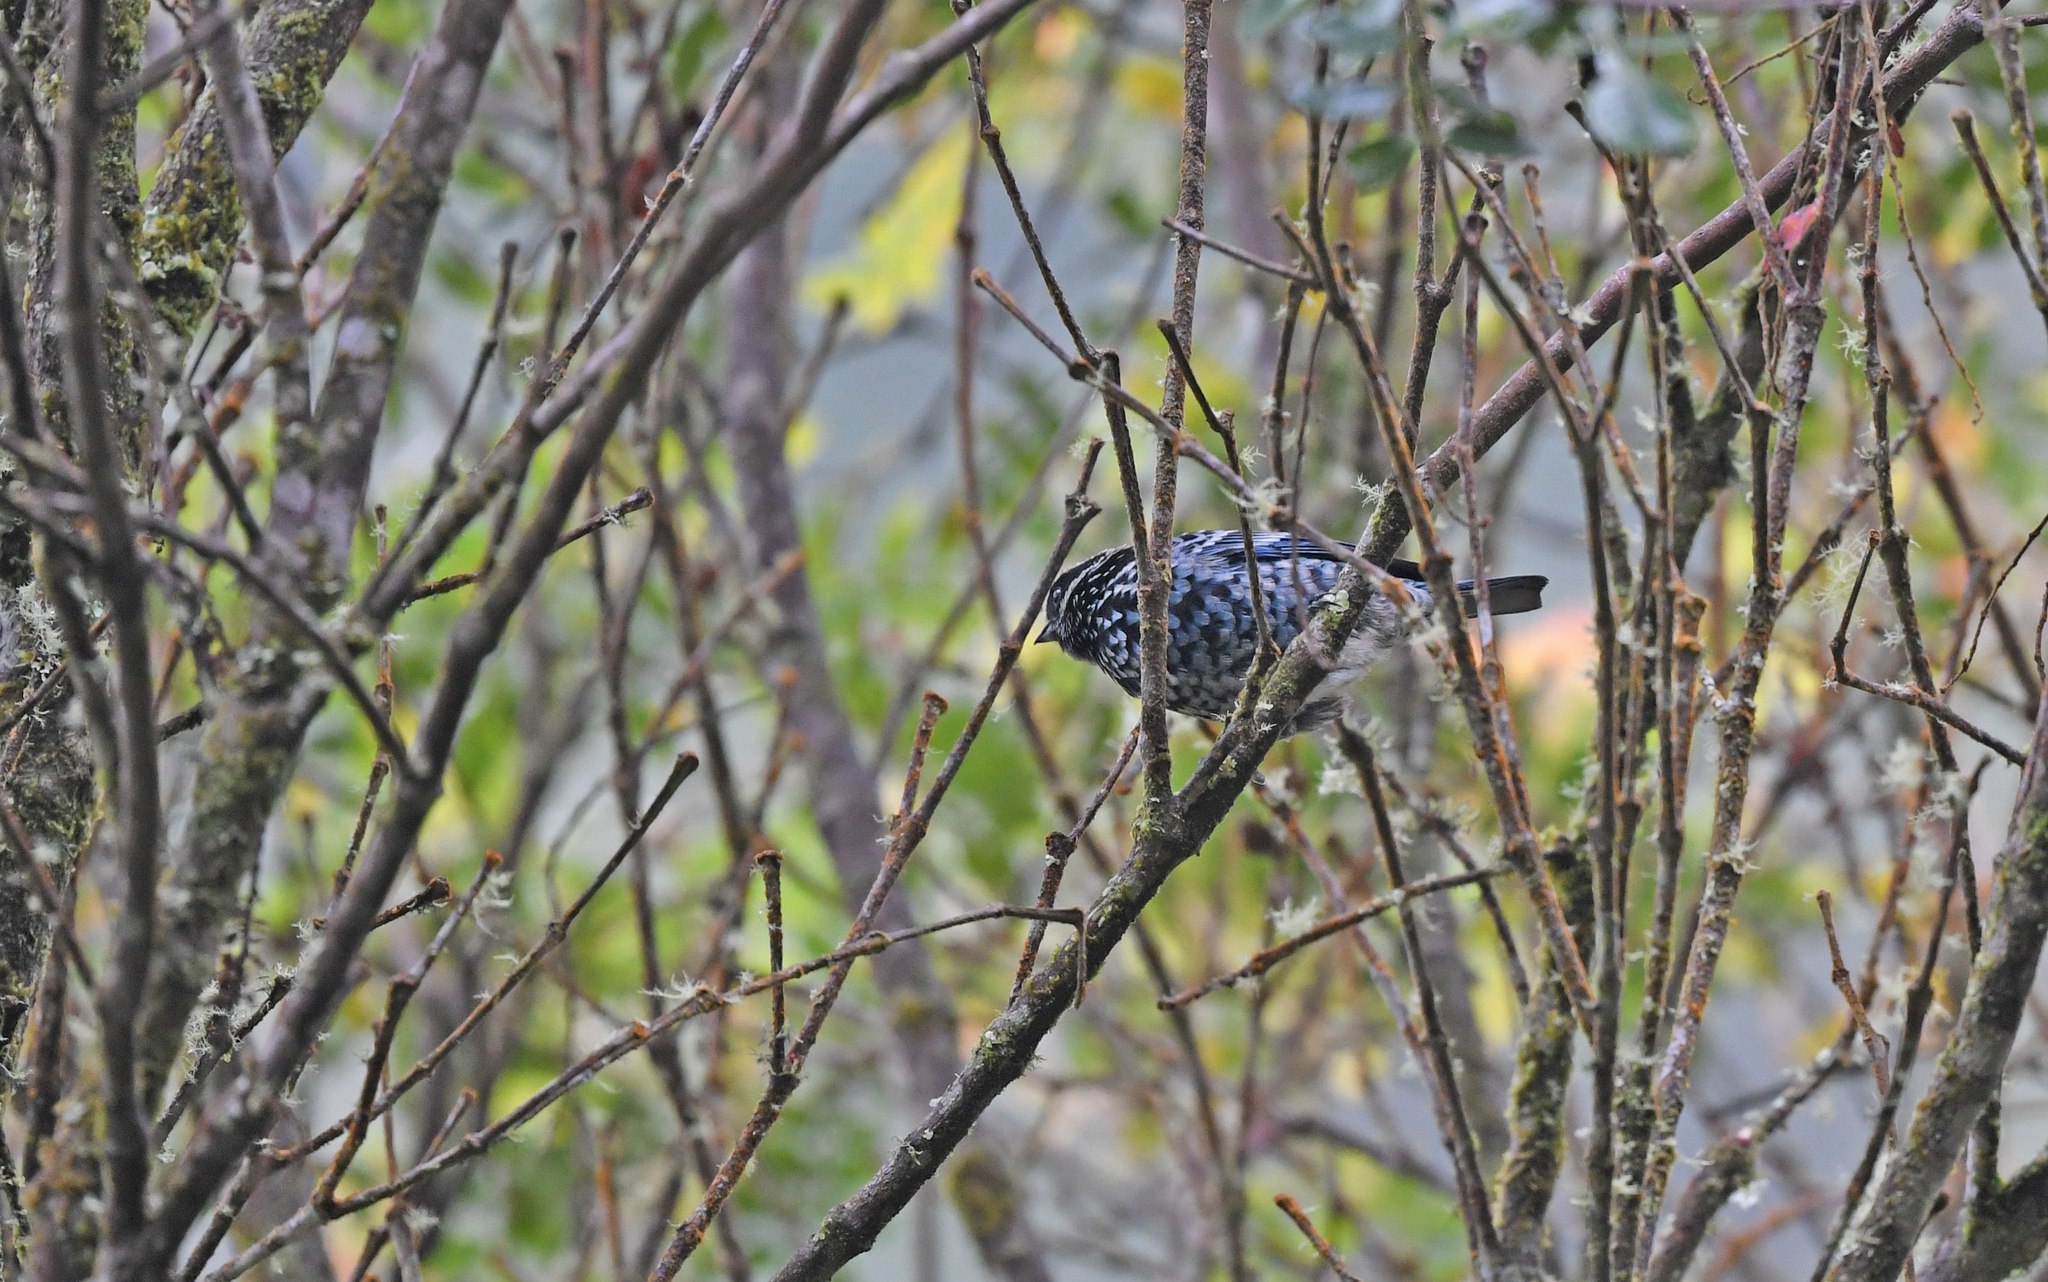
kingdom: Animalia
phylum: Chordata
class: Aves
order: Passeriformes
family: Thraupidae
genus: Tangara
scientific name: Tangara nigroviridis
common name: Beryl-spangled tanager
